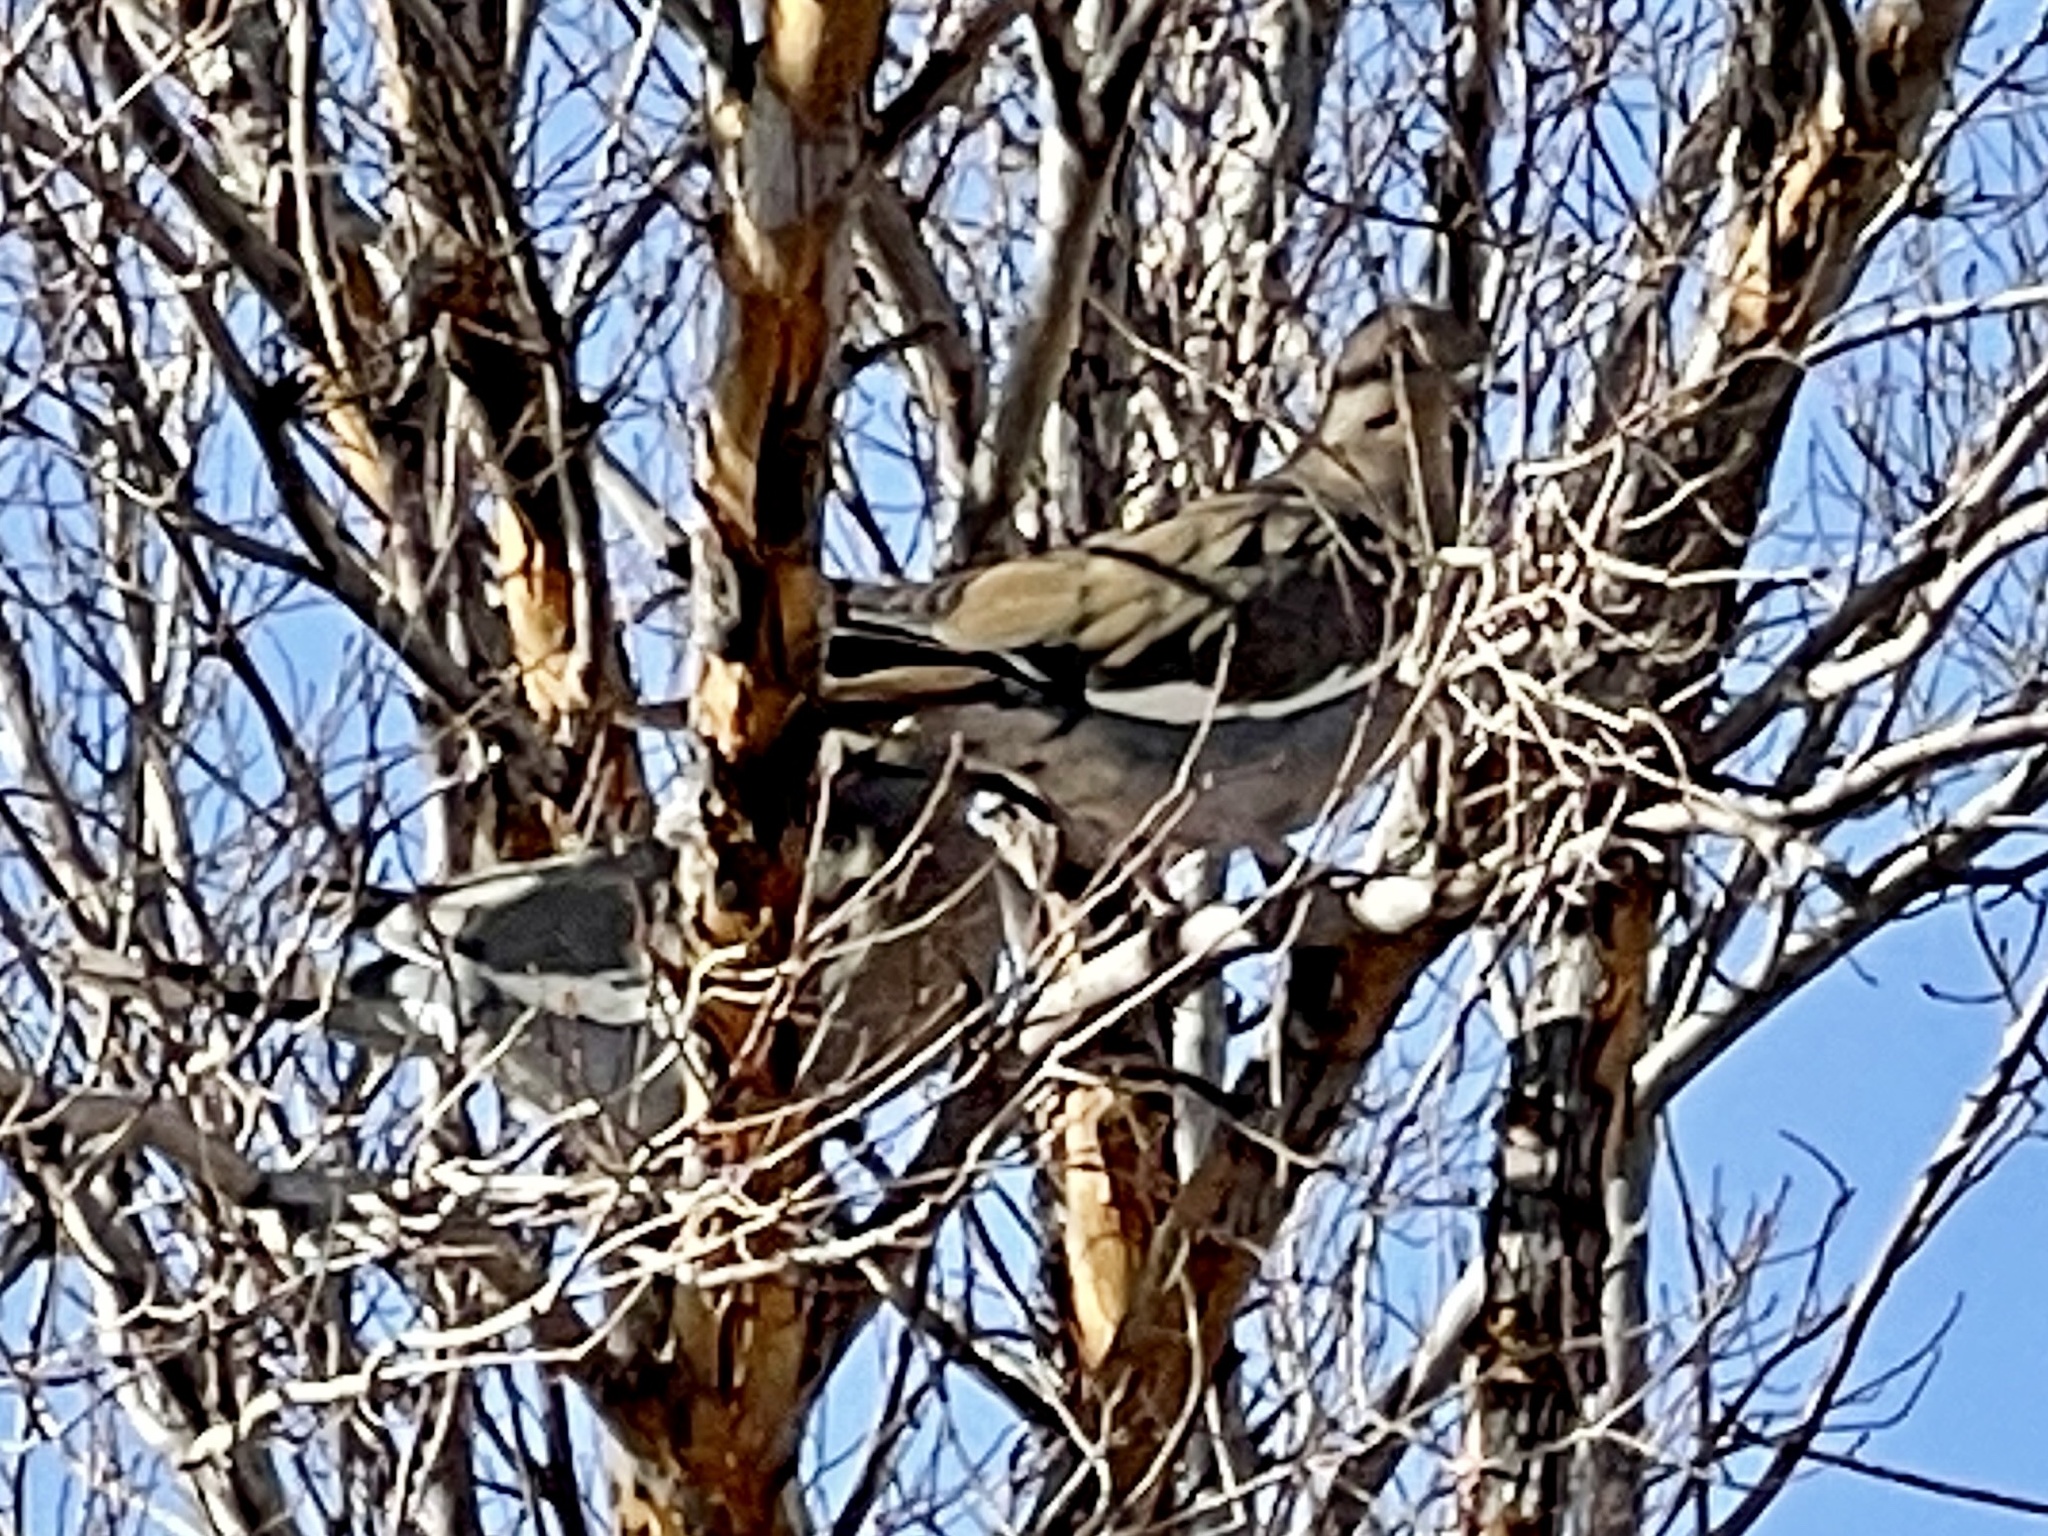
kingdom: Animalia
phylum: Chordata
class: Aves
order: Columbiformes
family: Columbidae
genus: Zenaida
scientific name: Zenaida asiatica
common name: White-winged dove
